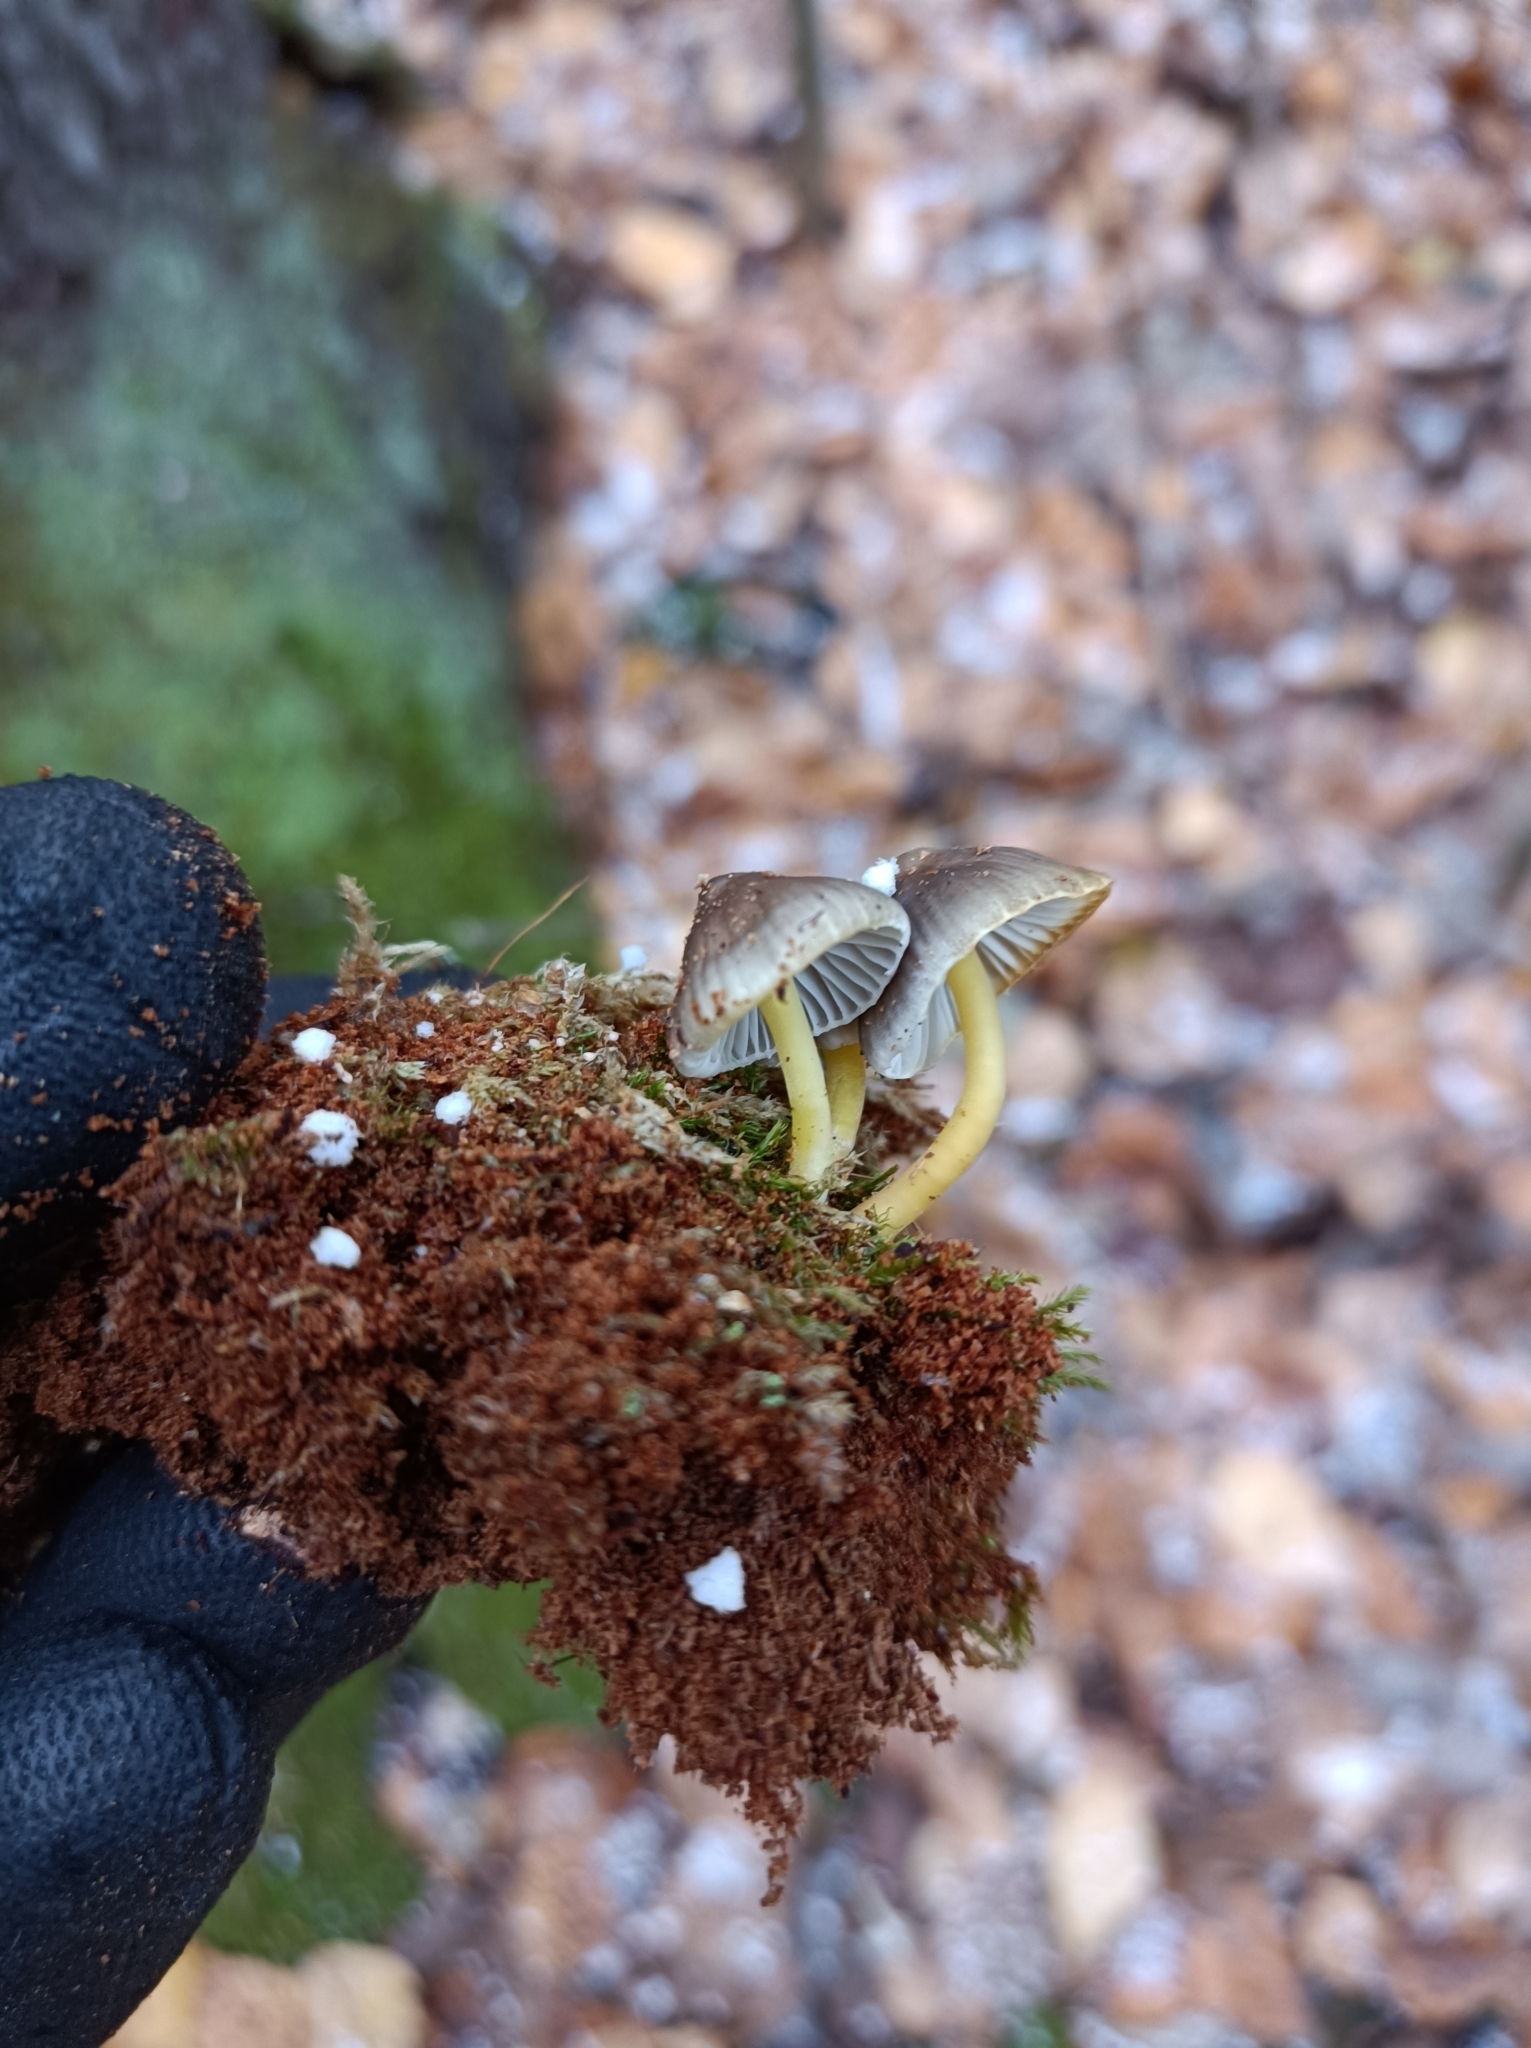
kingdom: Fungi
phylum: Basidiomycota
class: Agaricomycetes
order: Agaricales
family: Mycenaceae
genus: Mycena
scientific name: Mycena epipterygia
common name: Yellowleg bonnet
